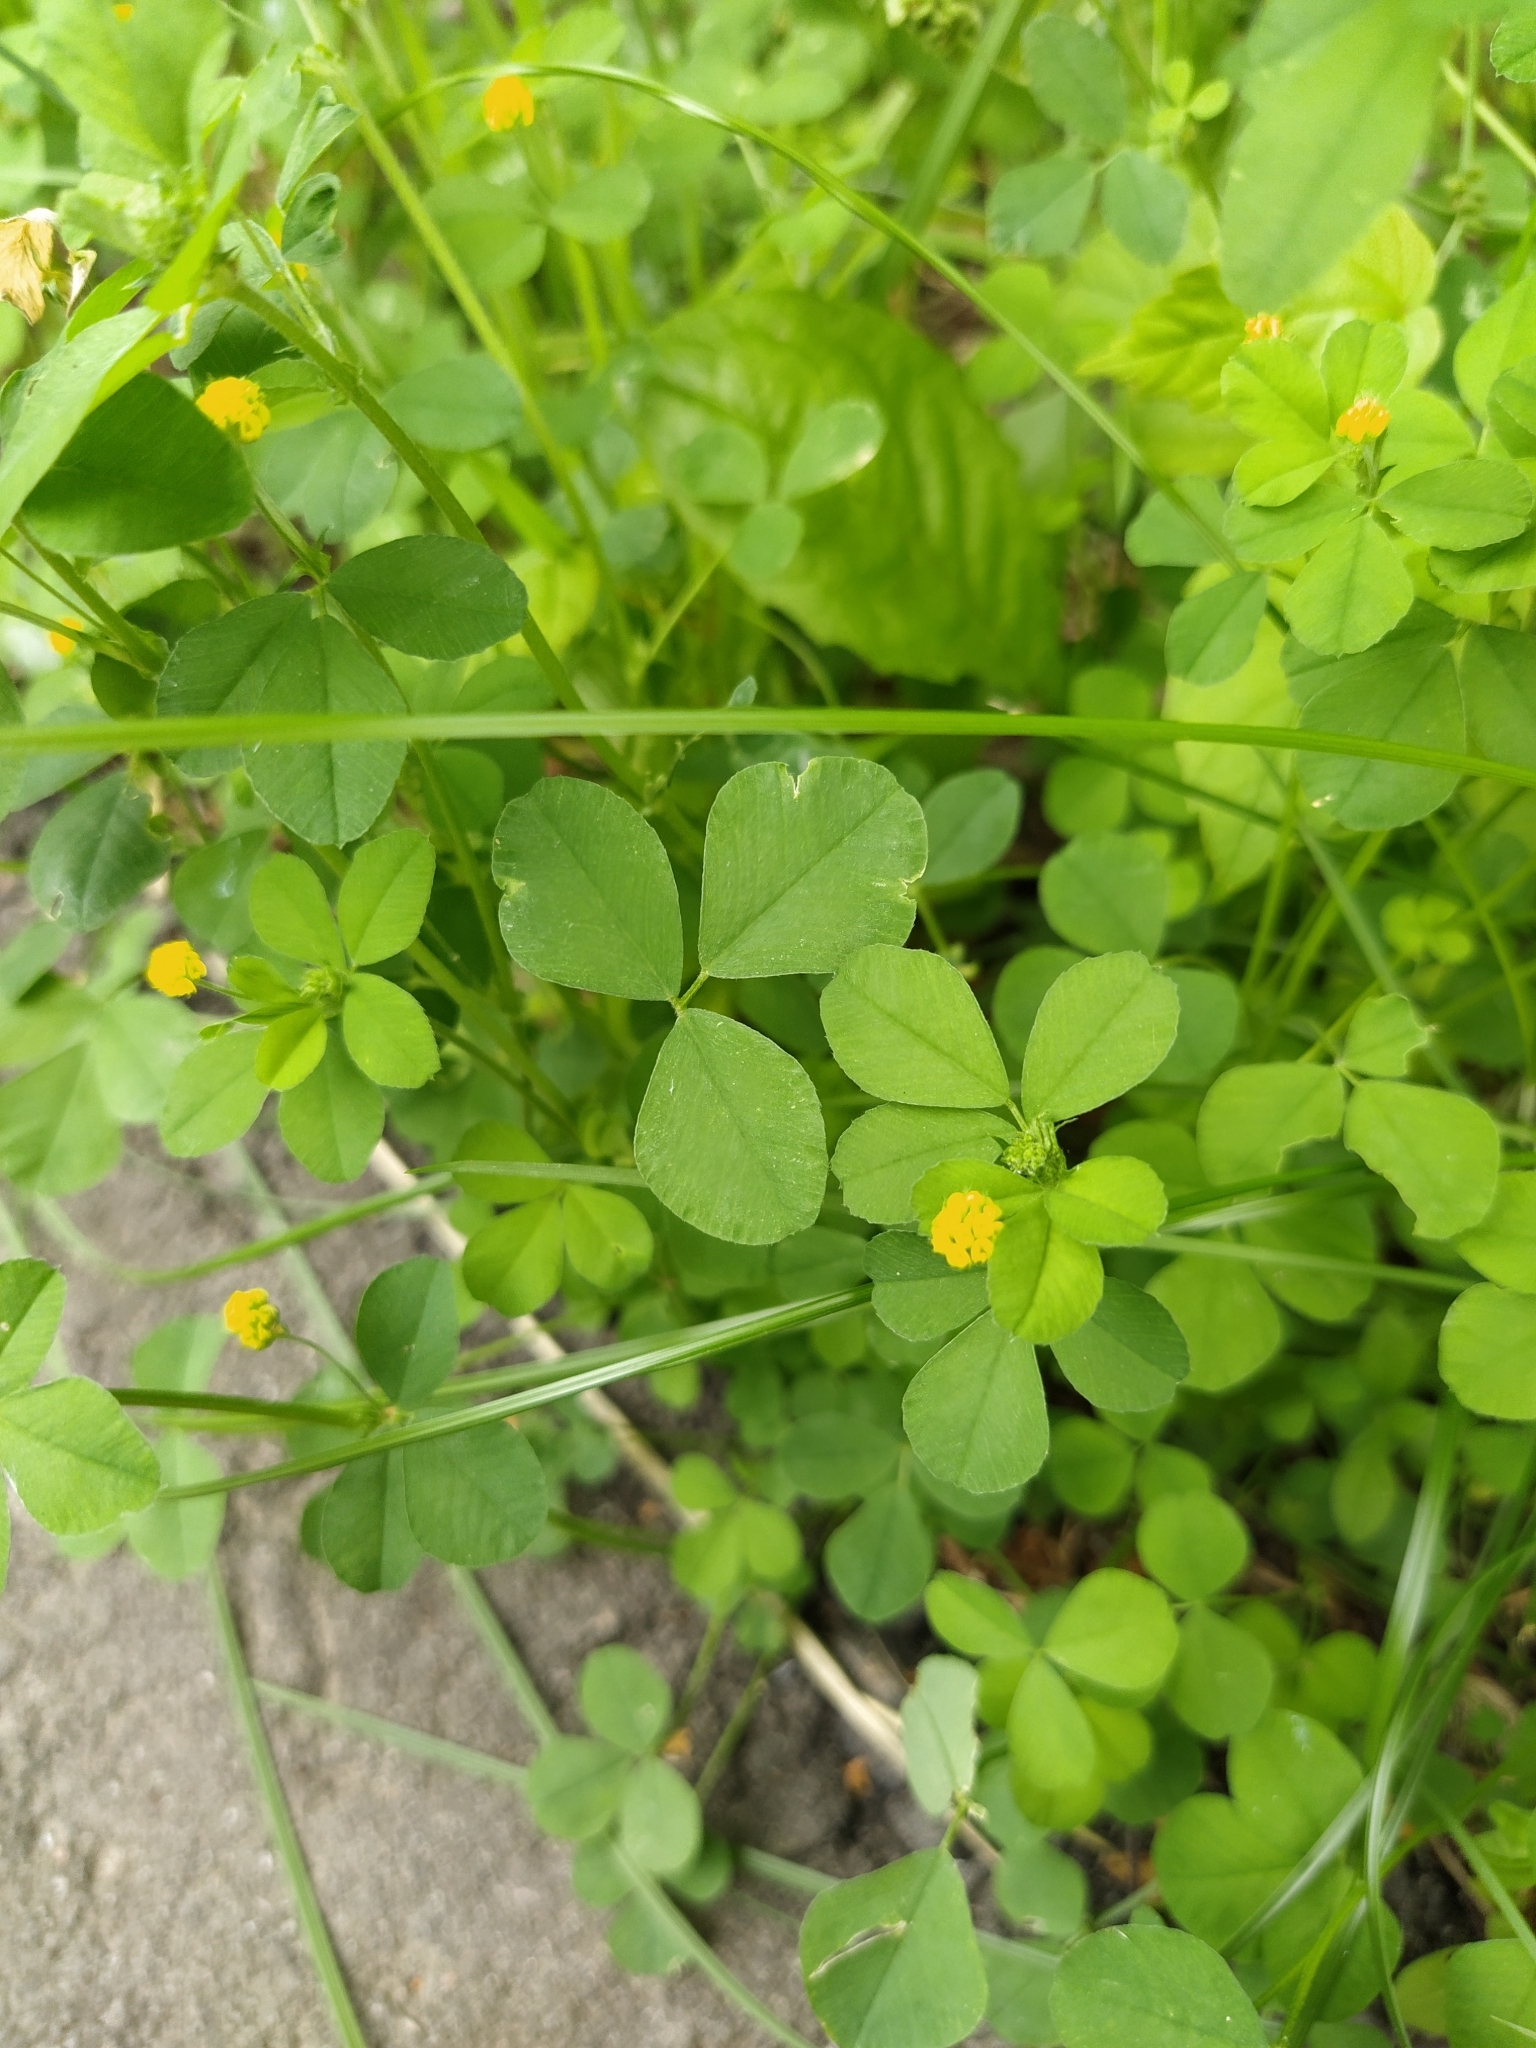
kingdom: Plantae
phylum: Tracheophyta
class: Magnoliopsida
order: Fabales
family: Fabaceae
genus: Medicago
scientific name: Medicago lupulina
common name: Black medick
